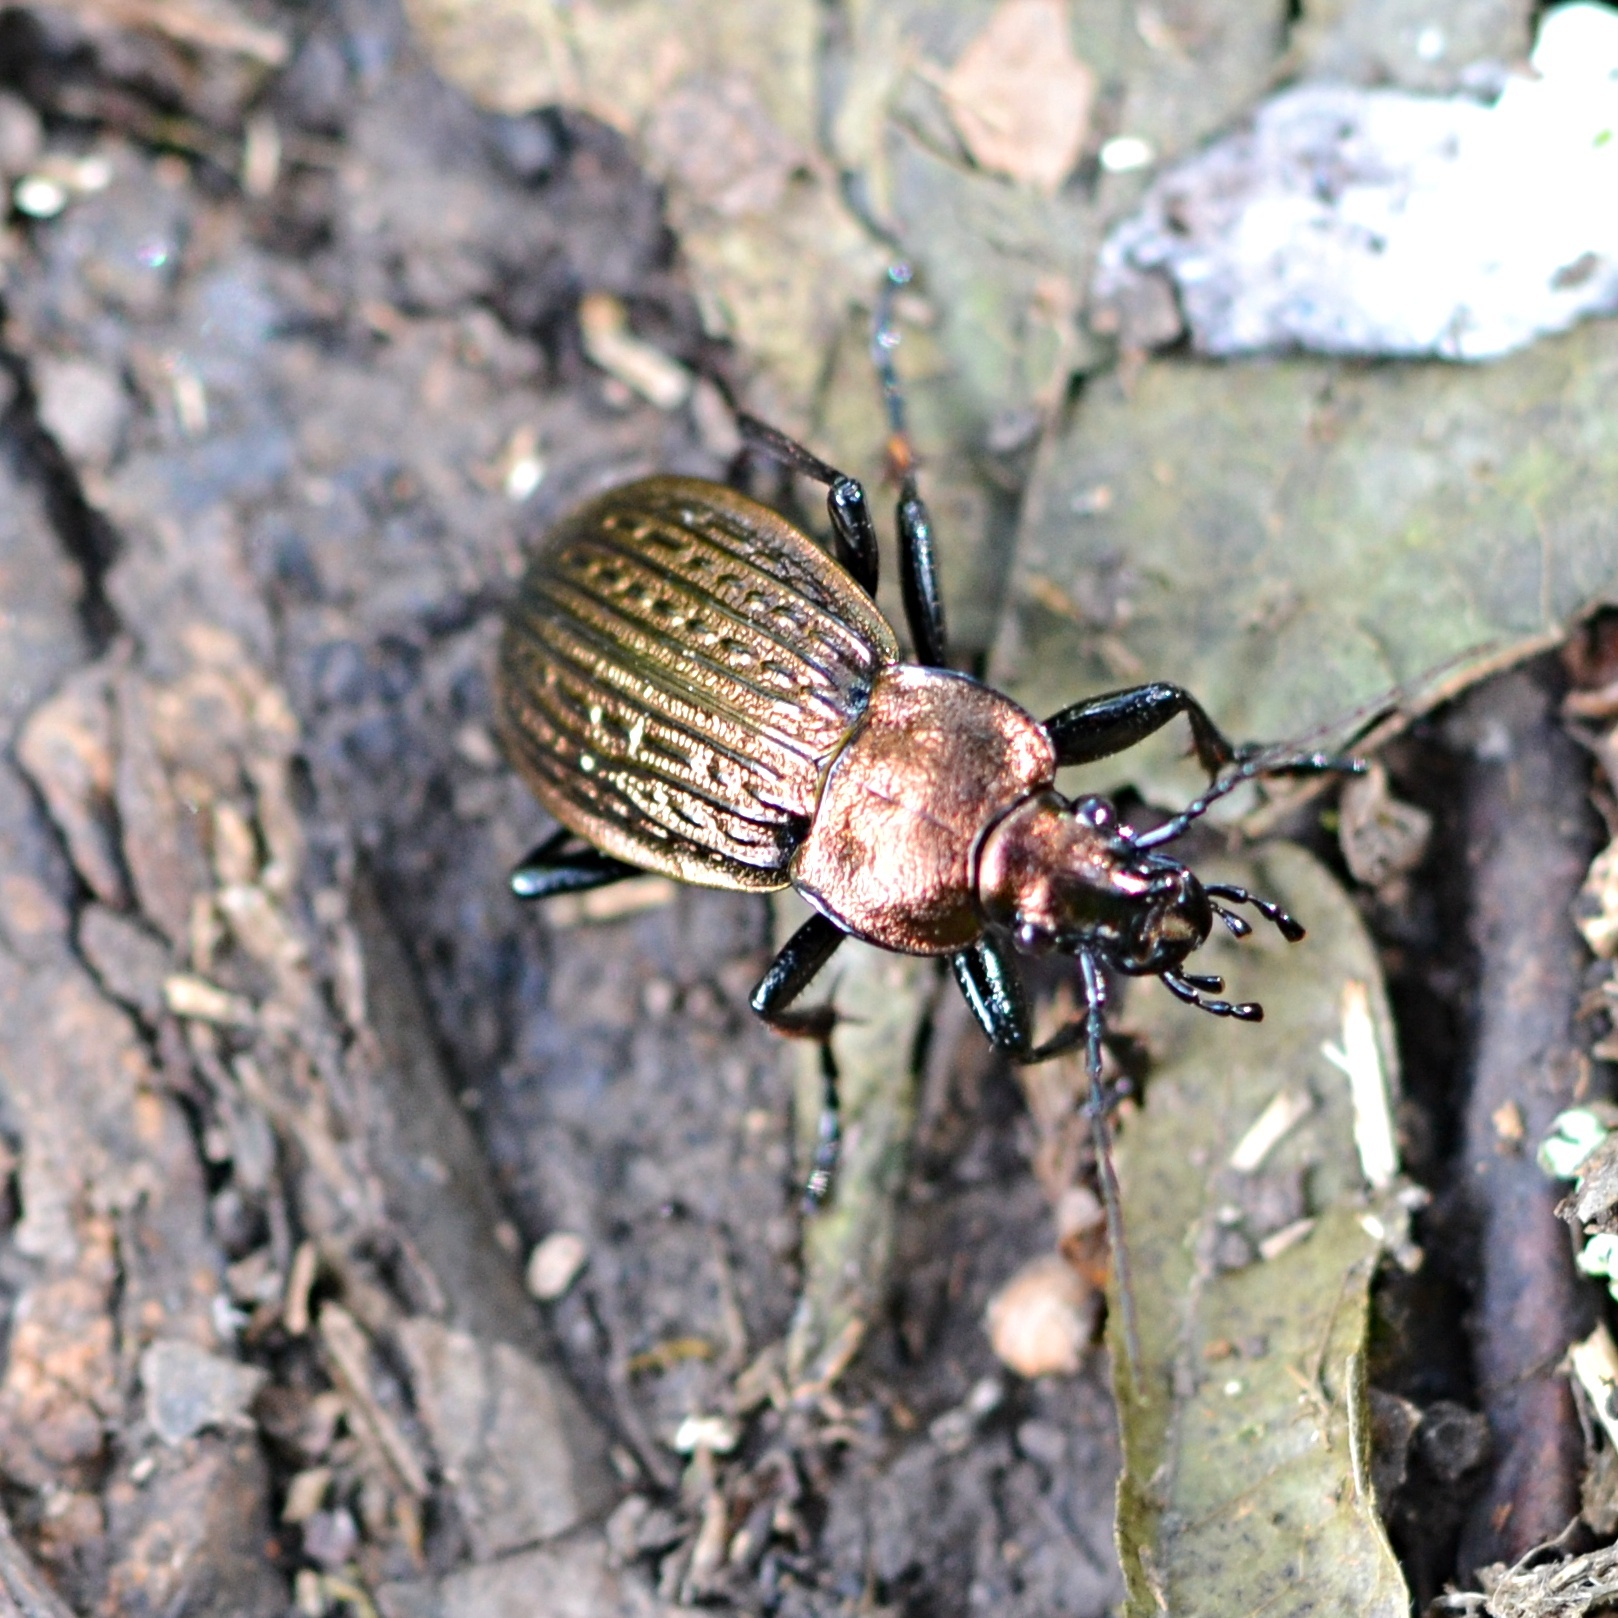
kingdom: Animalia
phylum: Arthropoda
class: Insecta
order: Coleoptera
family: Carabidae
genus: Carabus
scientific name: Carabus ulrichii
